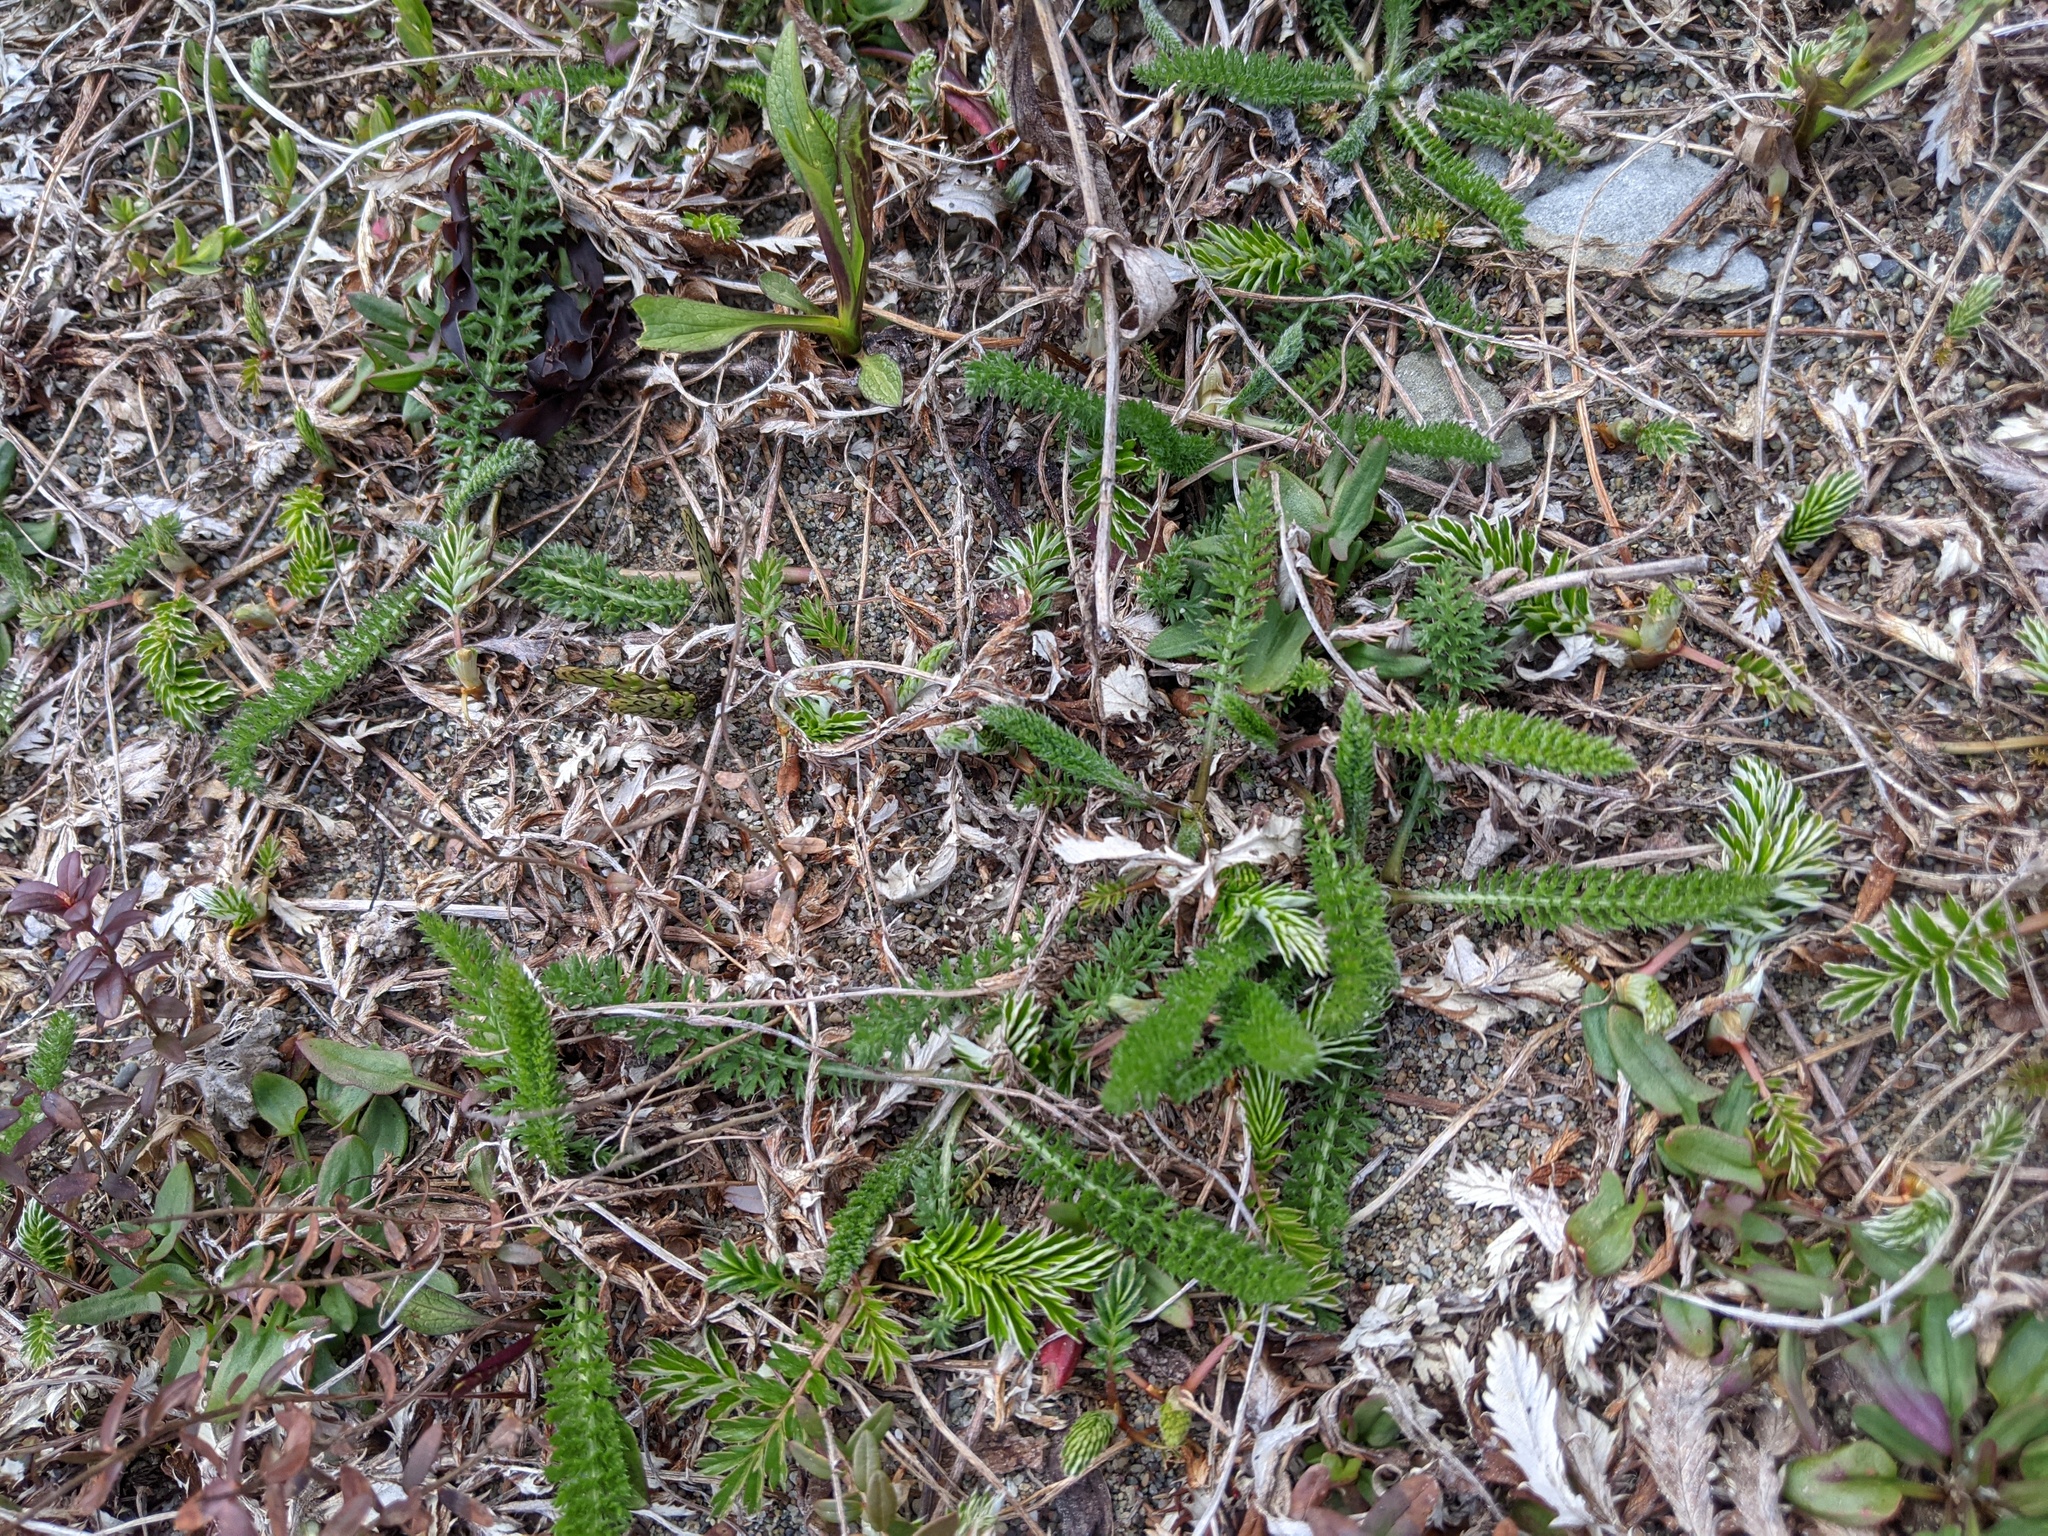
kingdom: Plantae
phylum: Tracheophyta
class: Magnoliopsida
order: Asterales
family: Asteraceae
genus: Achillea
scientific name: Achillea millefolium
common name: Yarrow
